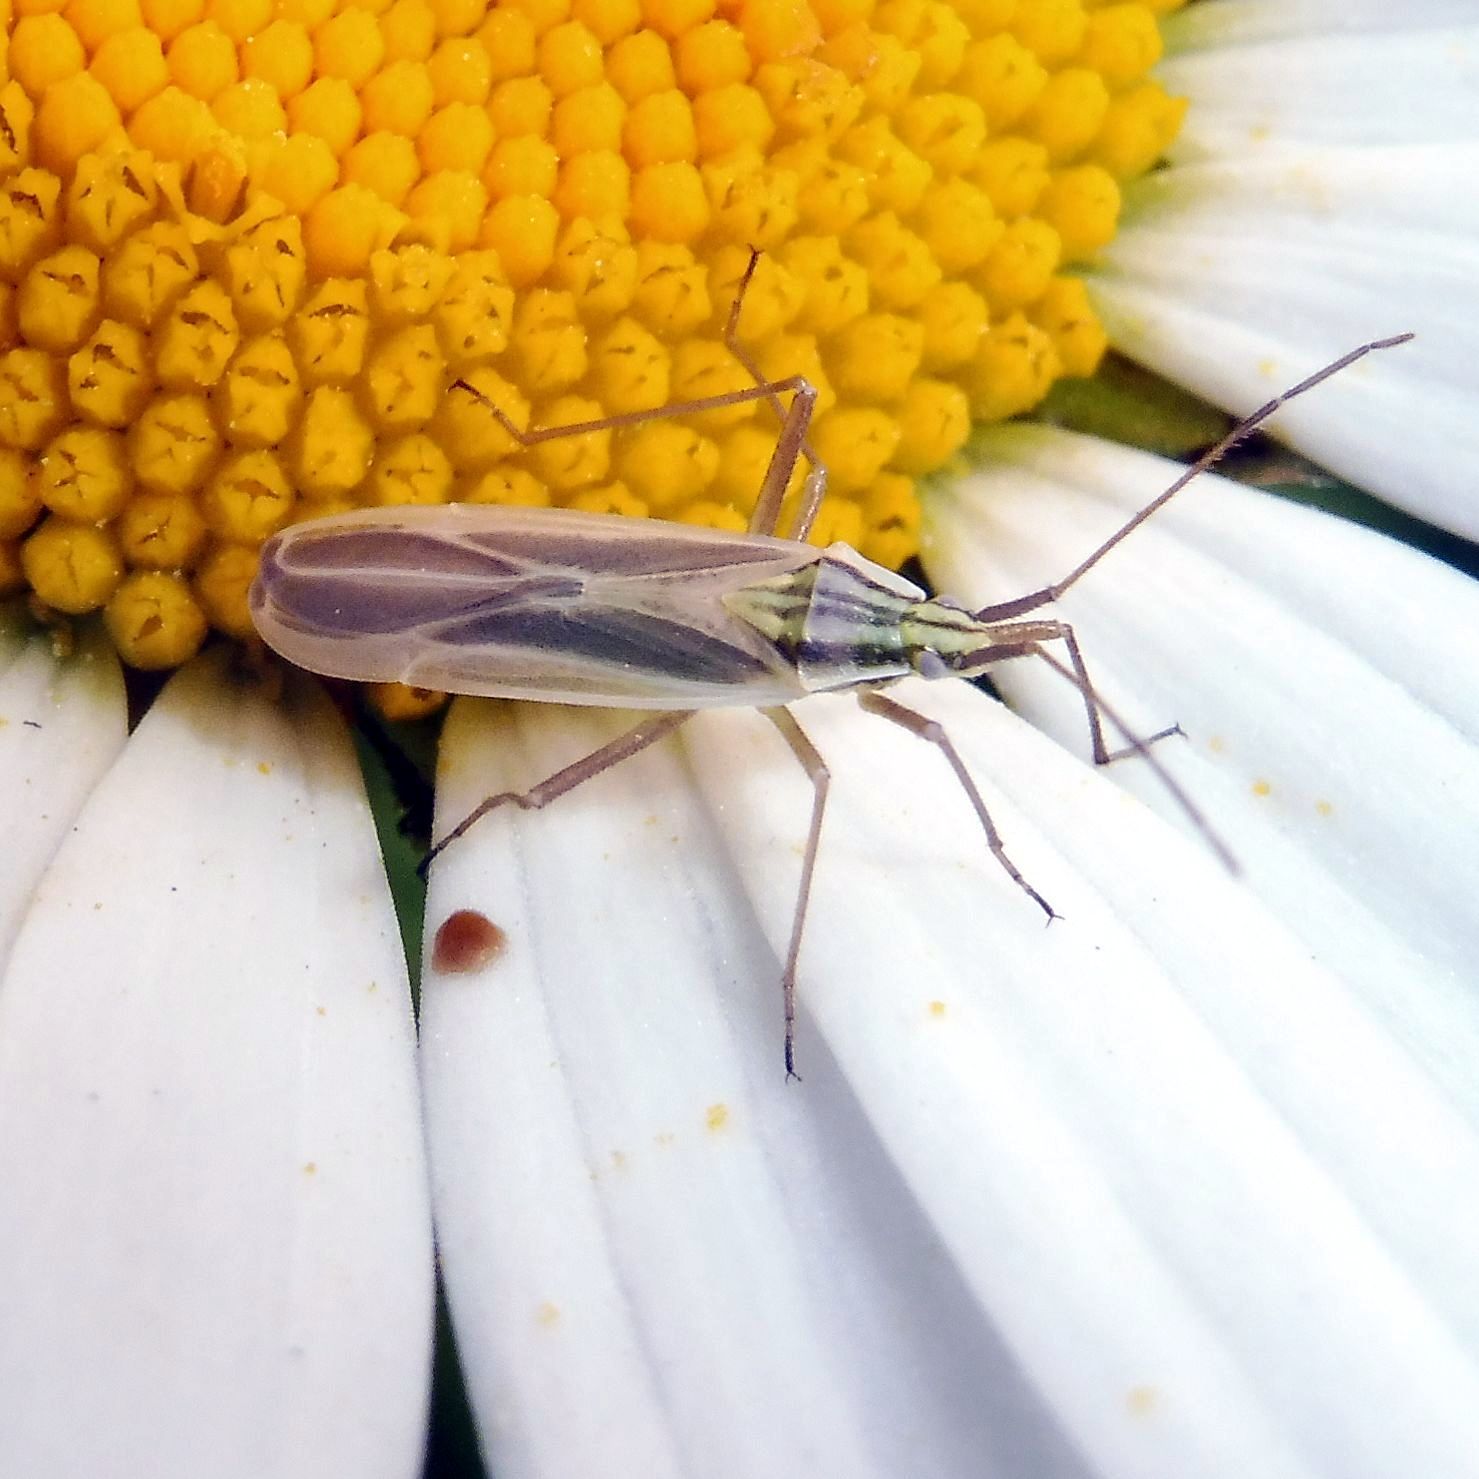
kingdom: Animalia
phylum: Arthropoda
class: Insecta
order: Hemiptera
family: Miridae
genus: Acetropis
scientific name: Acetropis gimmerthalii
